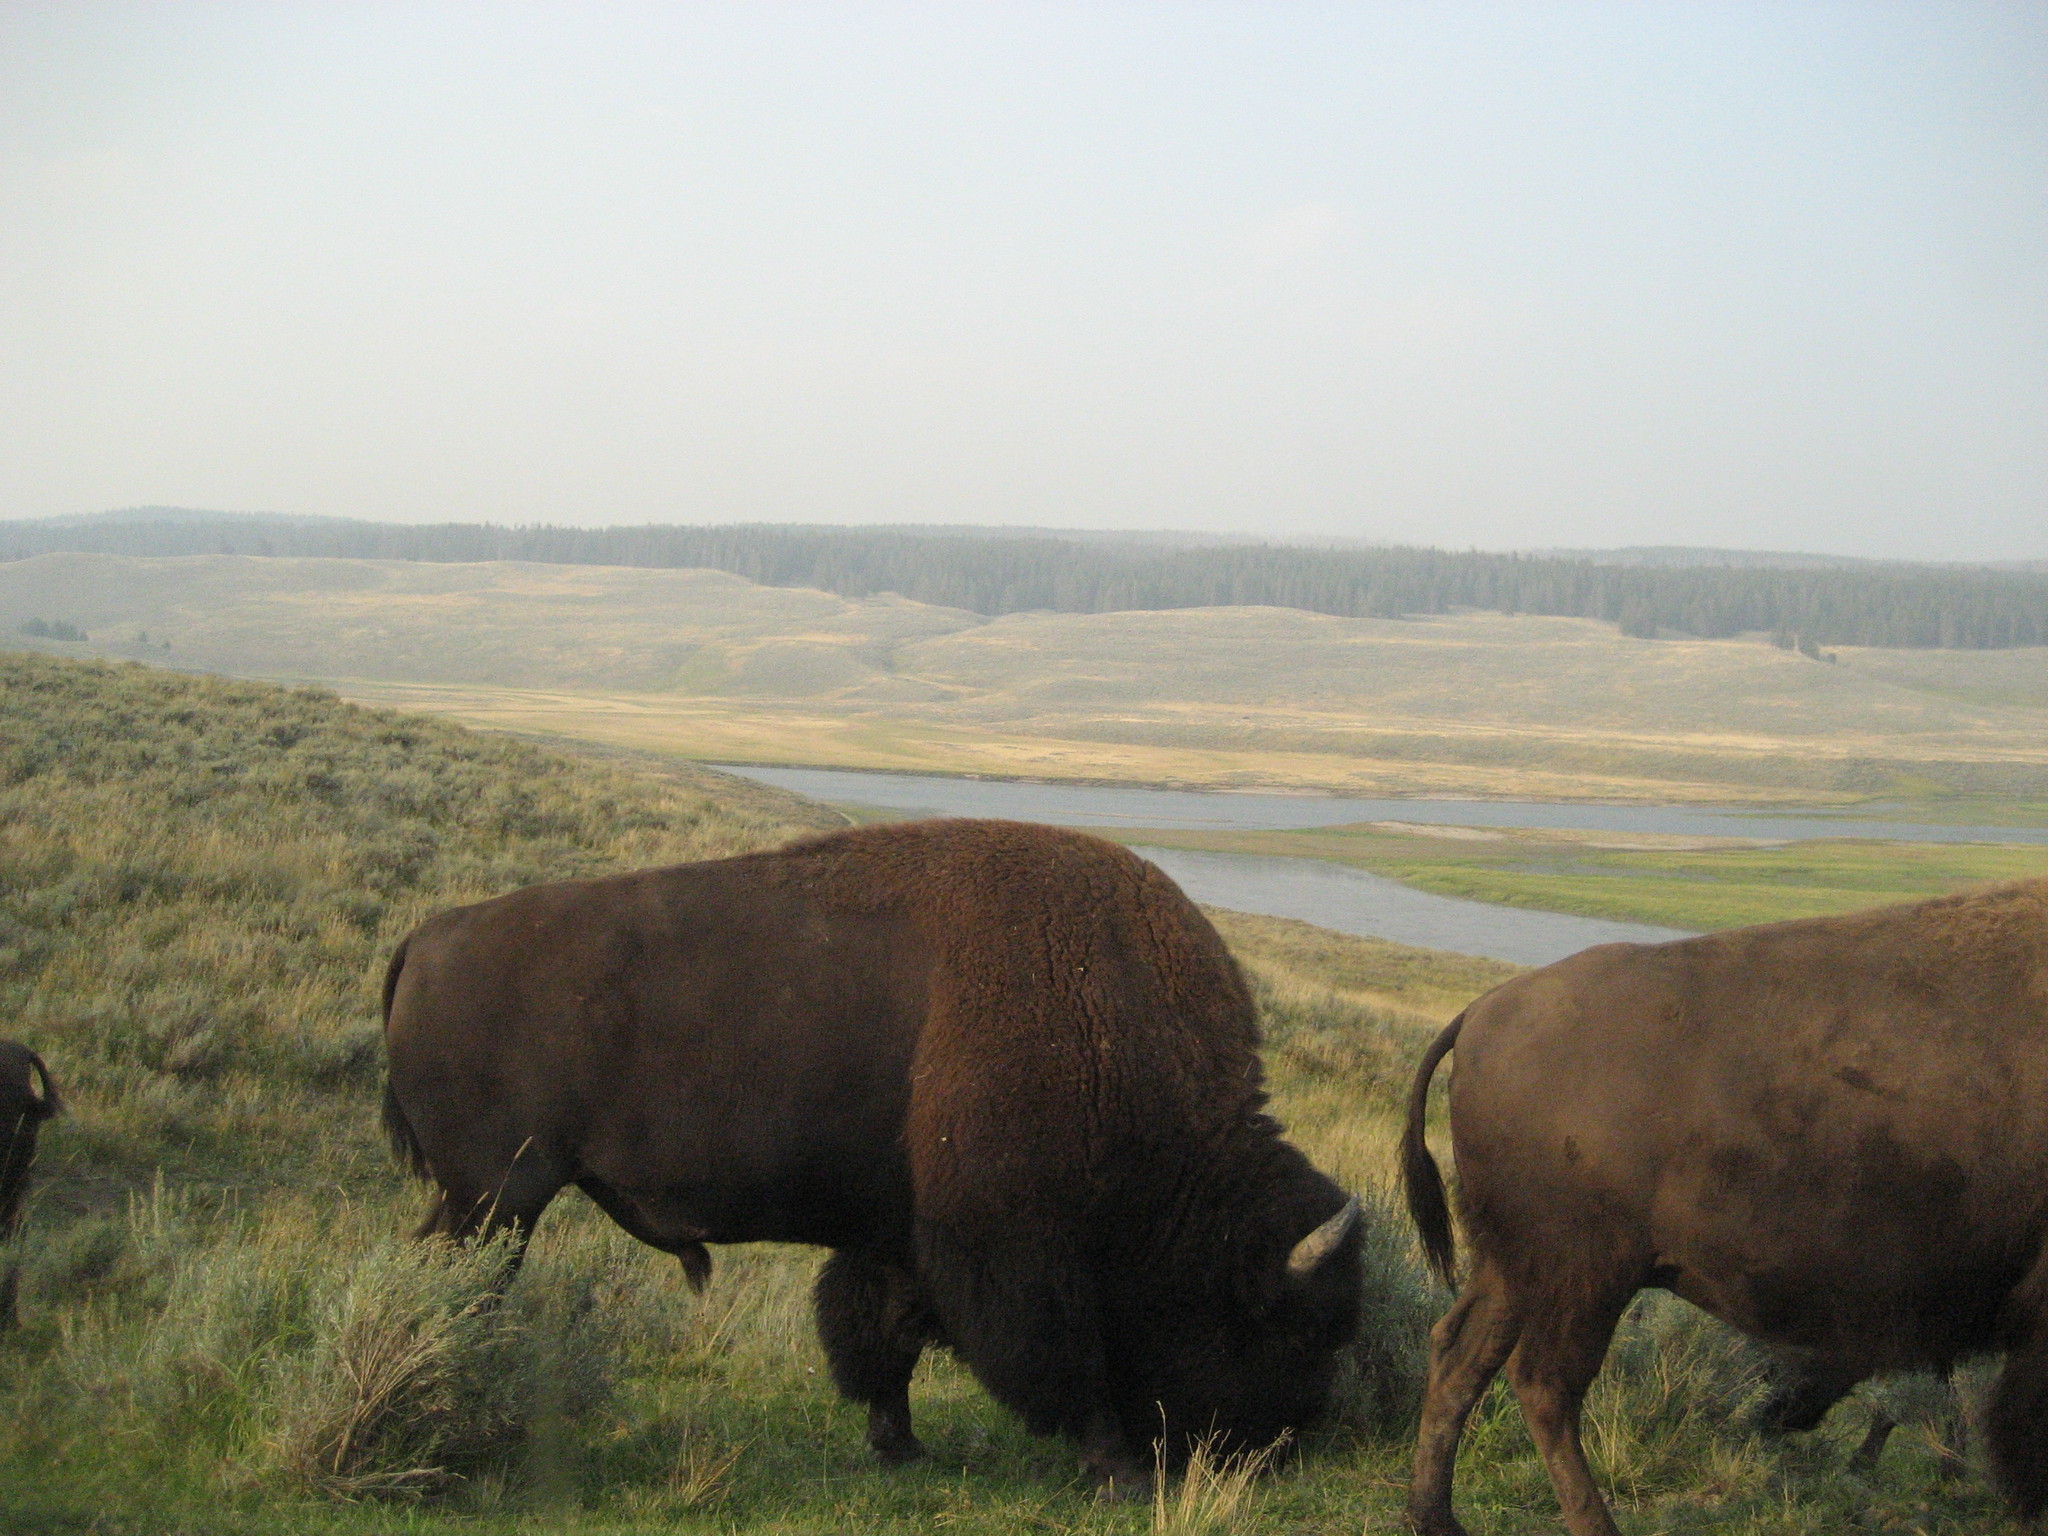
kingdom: Animalia
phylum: Chordata
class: Mammalia
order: Artiodactyla
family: Bovidae
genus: Bison
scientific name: Bison bison
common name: American bison
